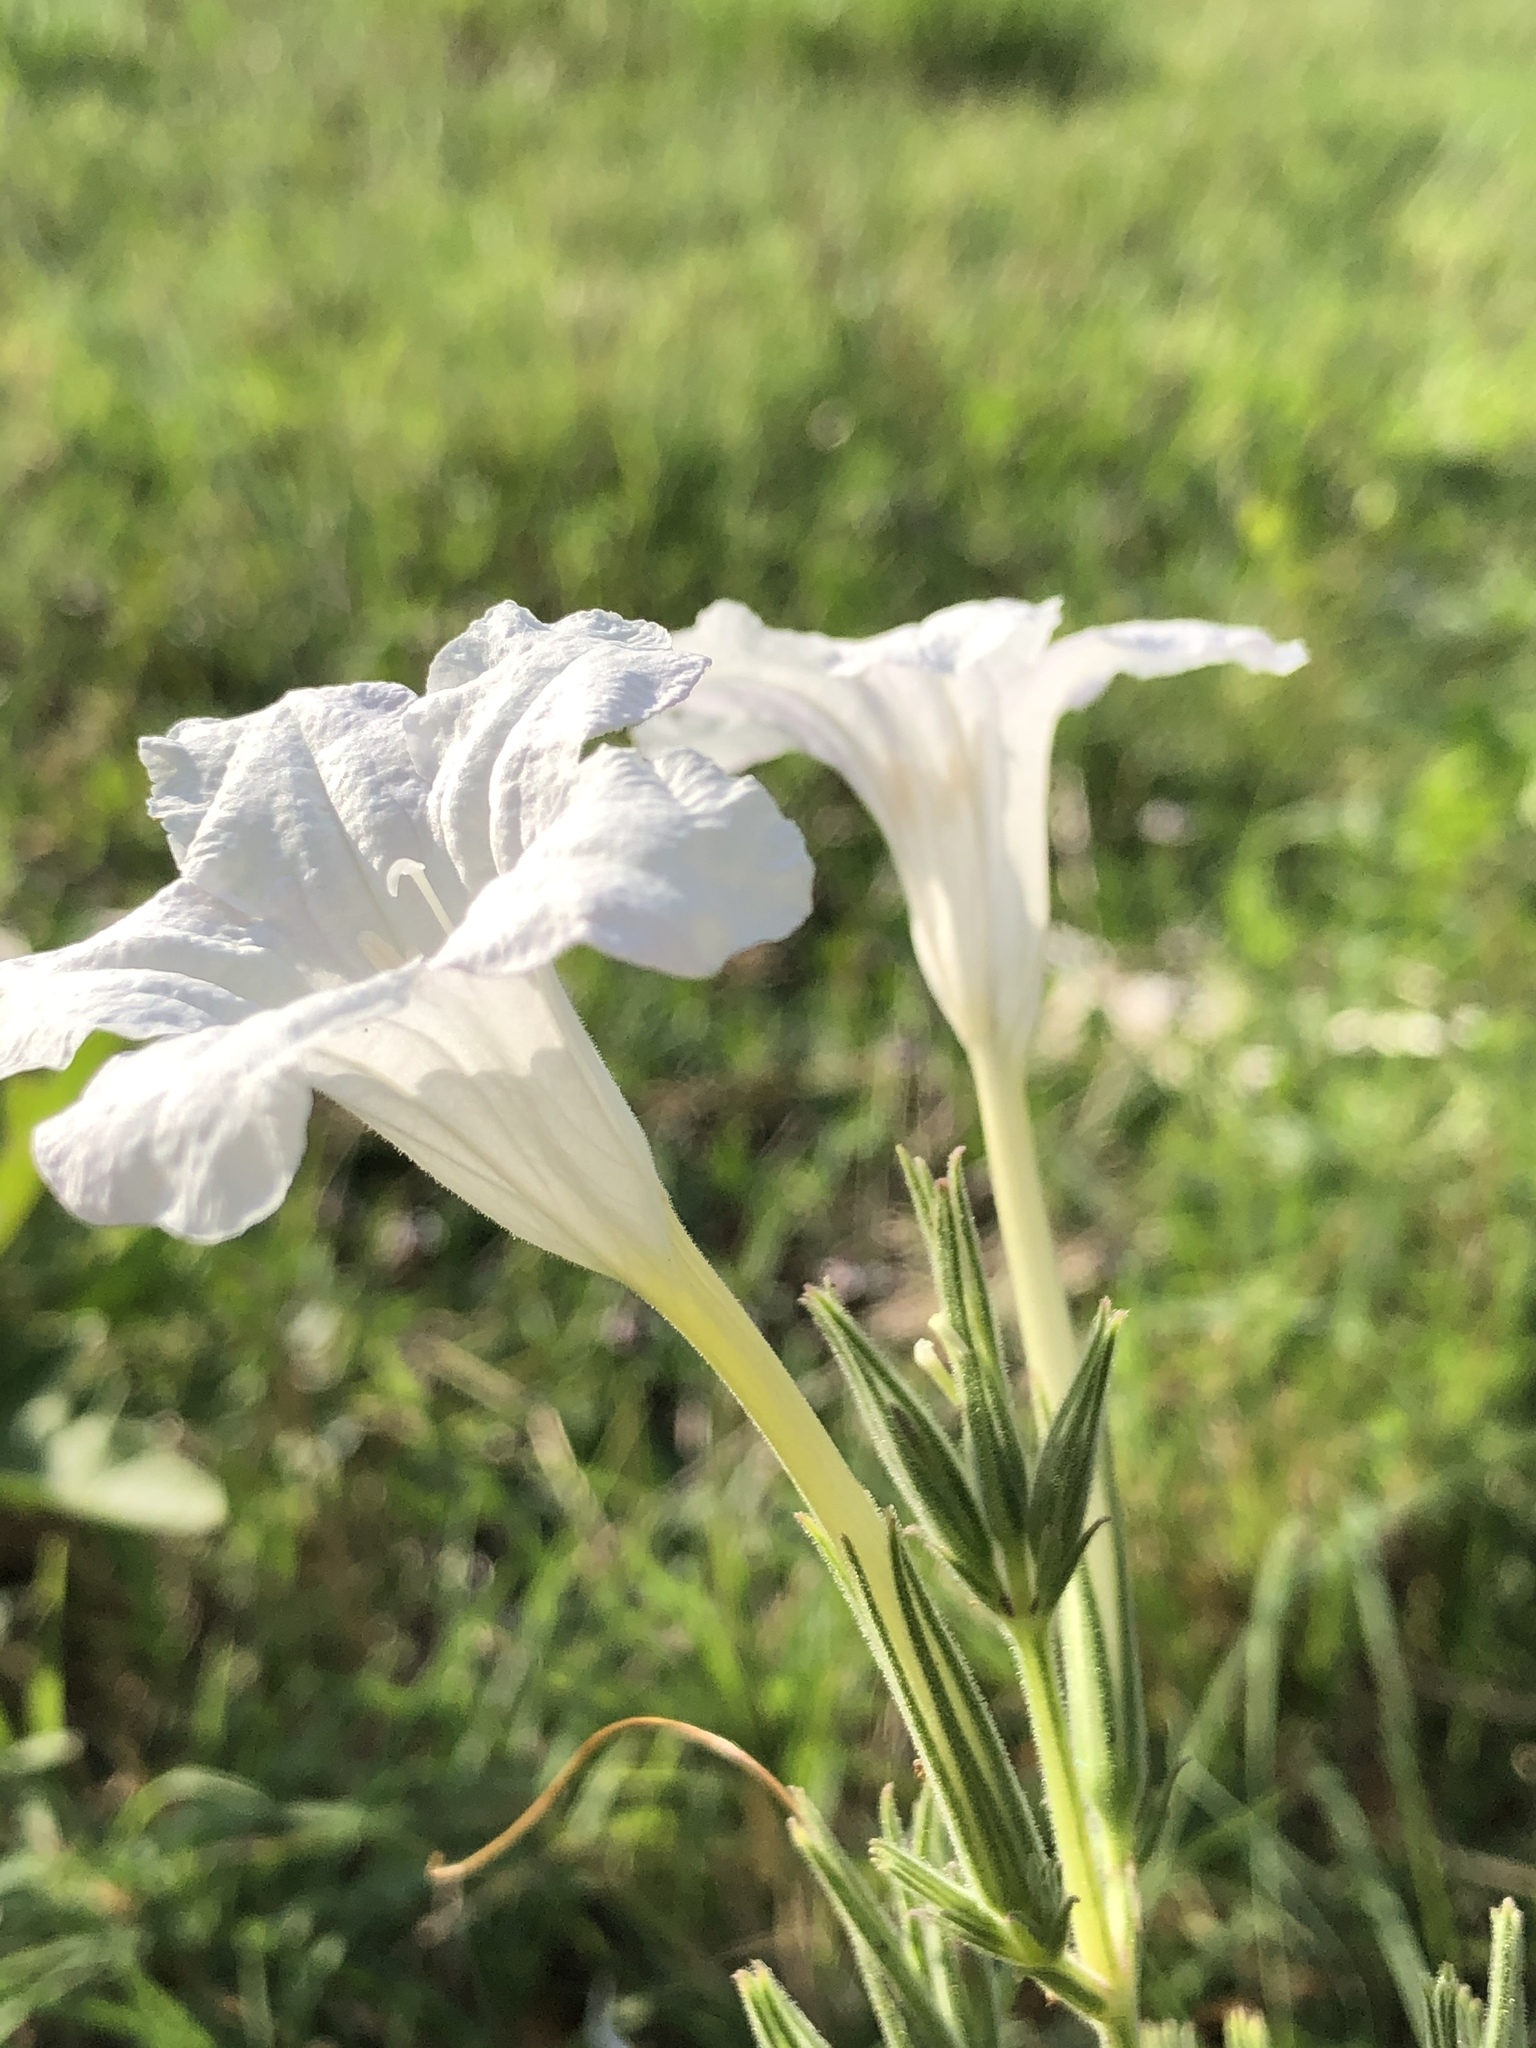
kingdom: Plantae
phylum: Tracheophyta
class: Magnoliopsida
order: Lamiales
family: Acanthaceae
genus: Ruellia
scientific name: Ruellia metziae
